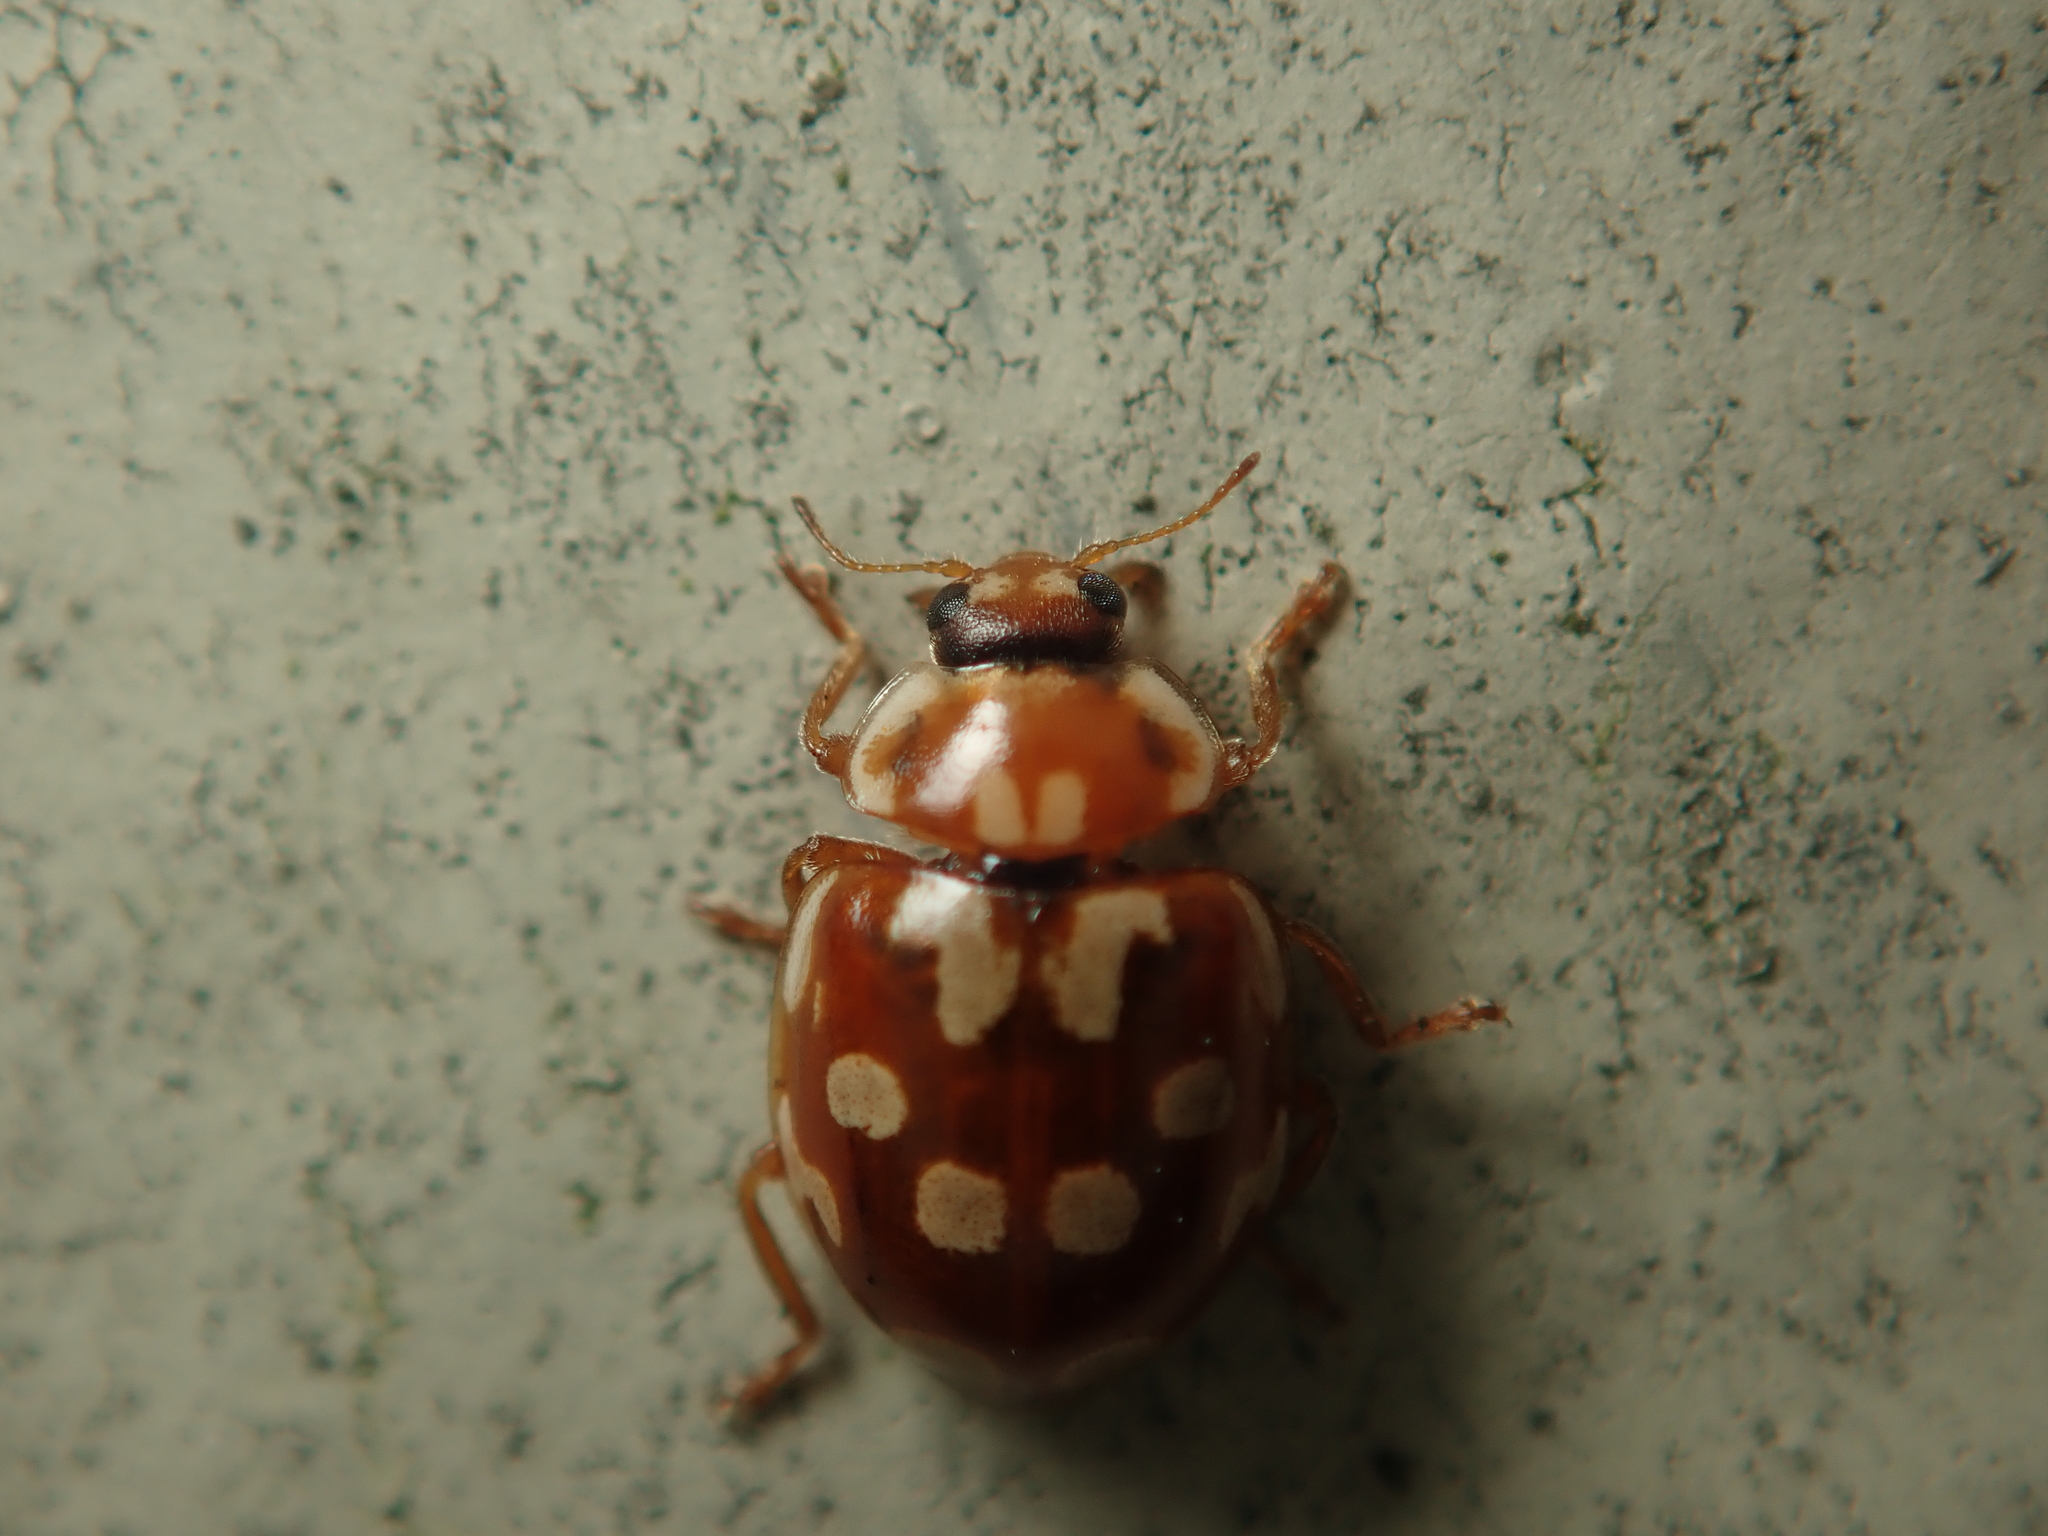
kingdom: Animalia
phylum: Arthropoda
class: Insecta
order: Coleoptera
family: Coccinellidae
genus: Myrrha
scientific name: Myrrha octodecimguttata
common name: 18-spot ladybird
